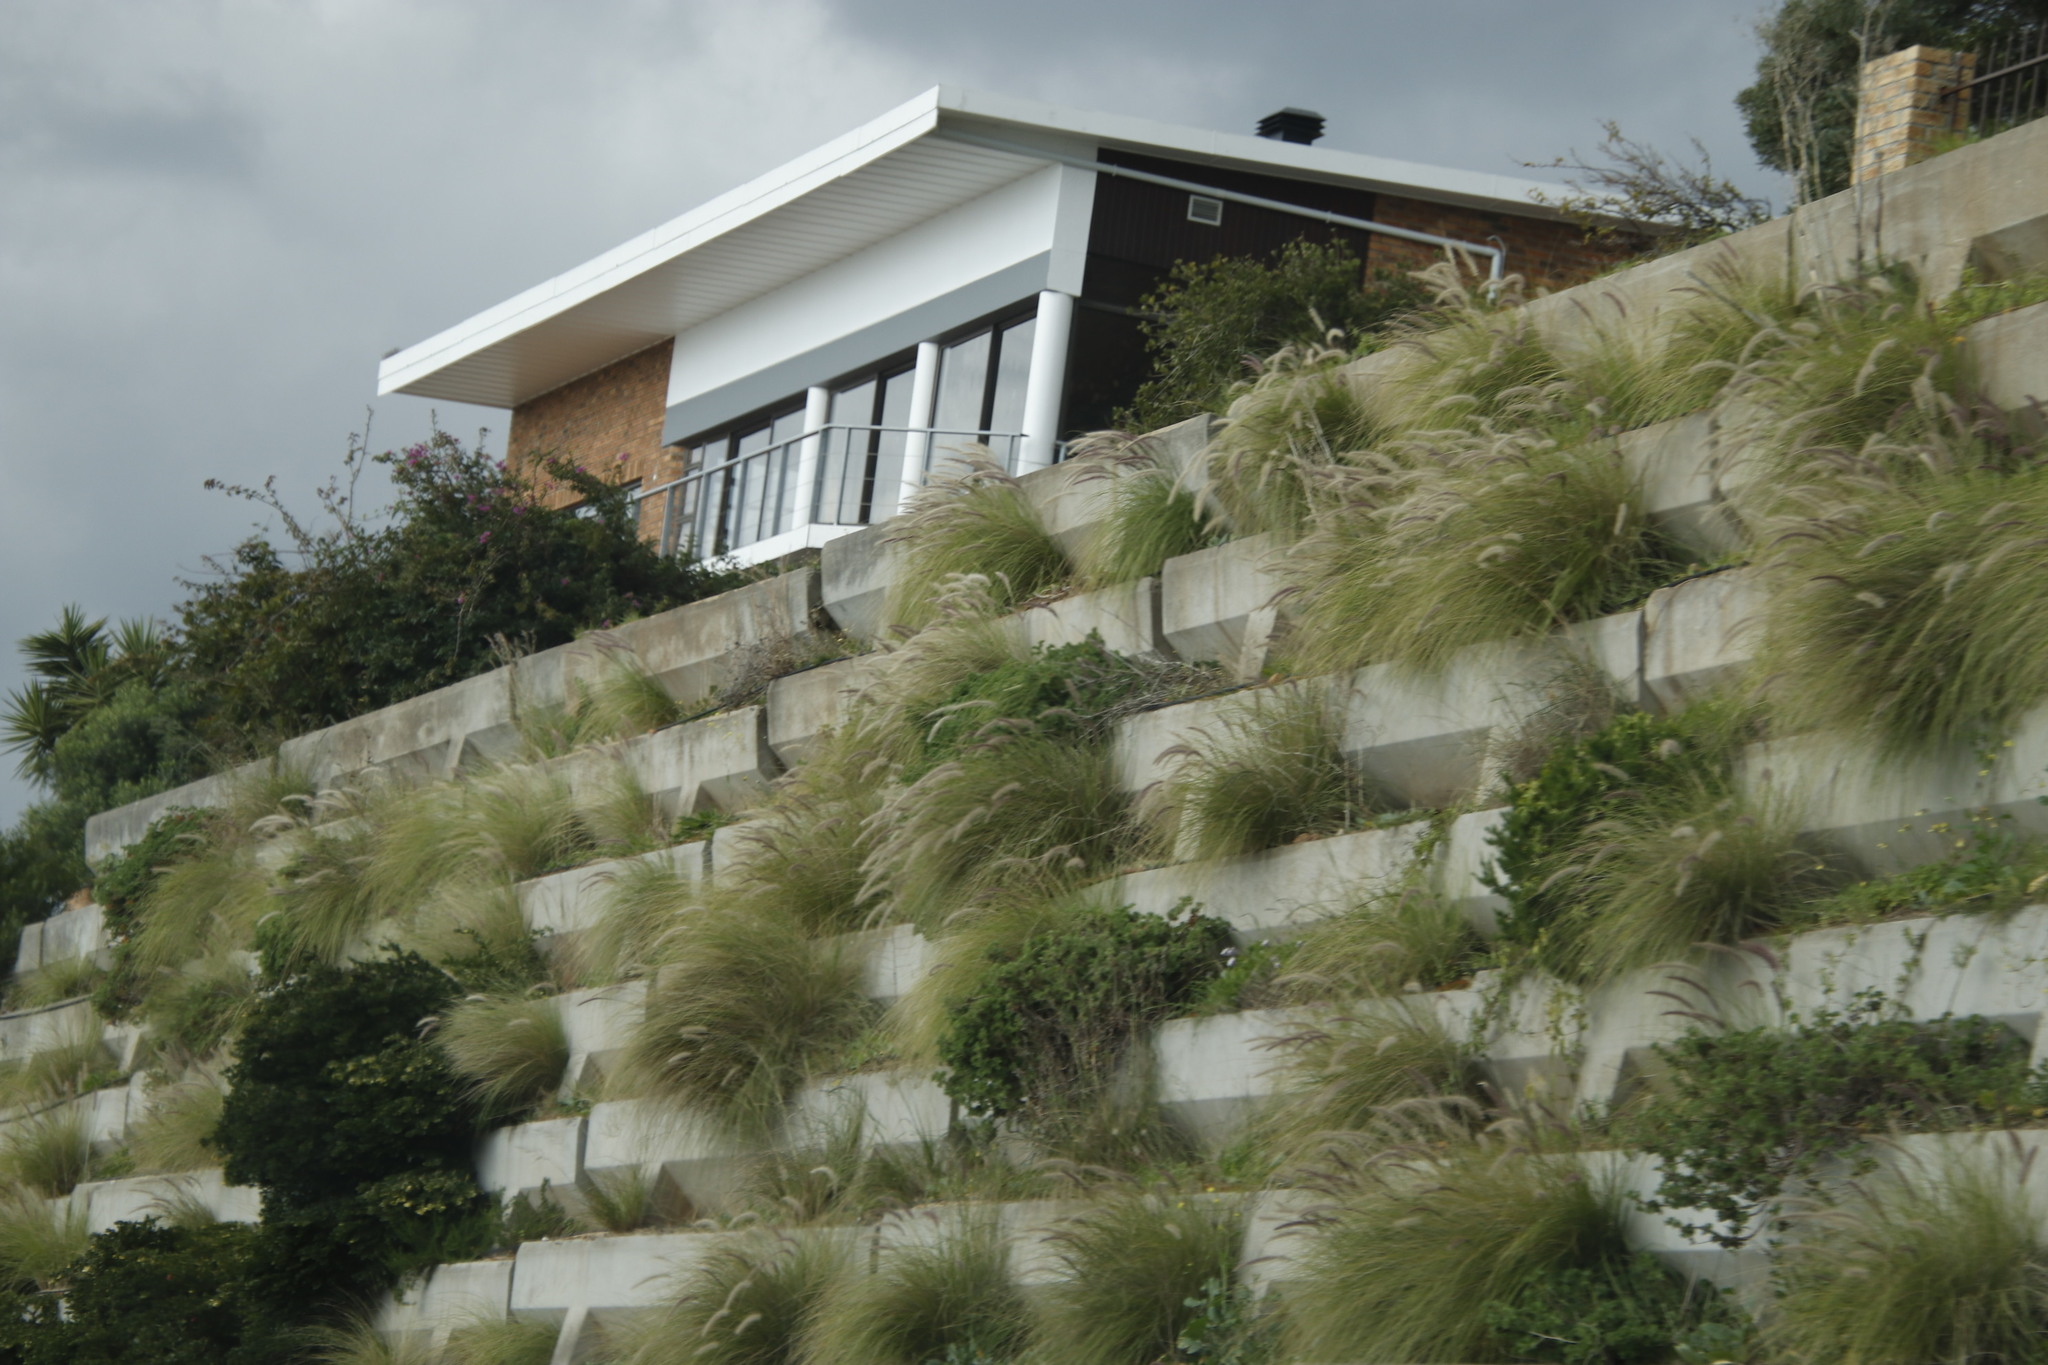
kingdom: Plantae
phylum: Tracheophyta
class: Liliopsida
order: Poales
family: Poaceae
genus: Cenchrus
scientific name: Cenchrus setaceus
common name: Crimson fountaingrass
